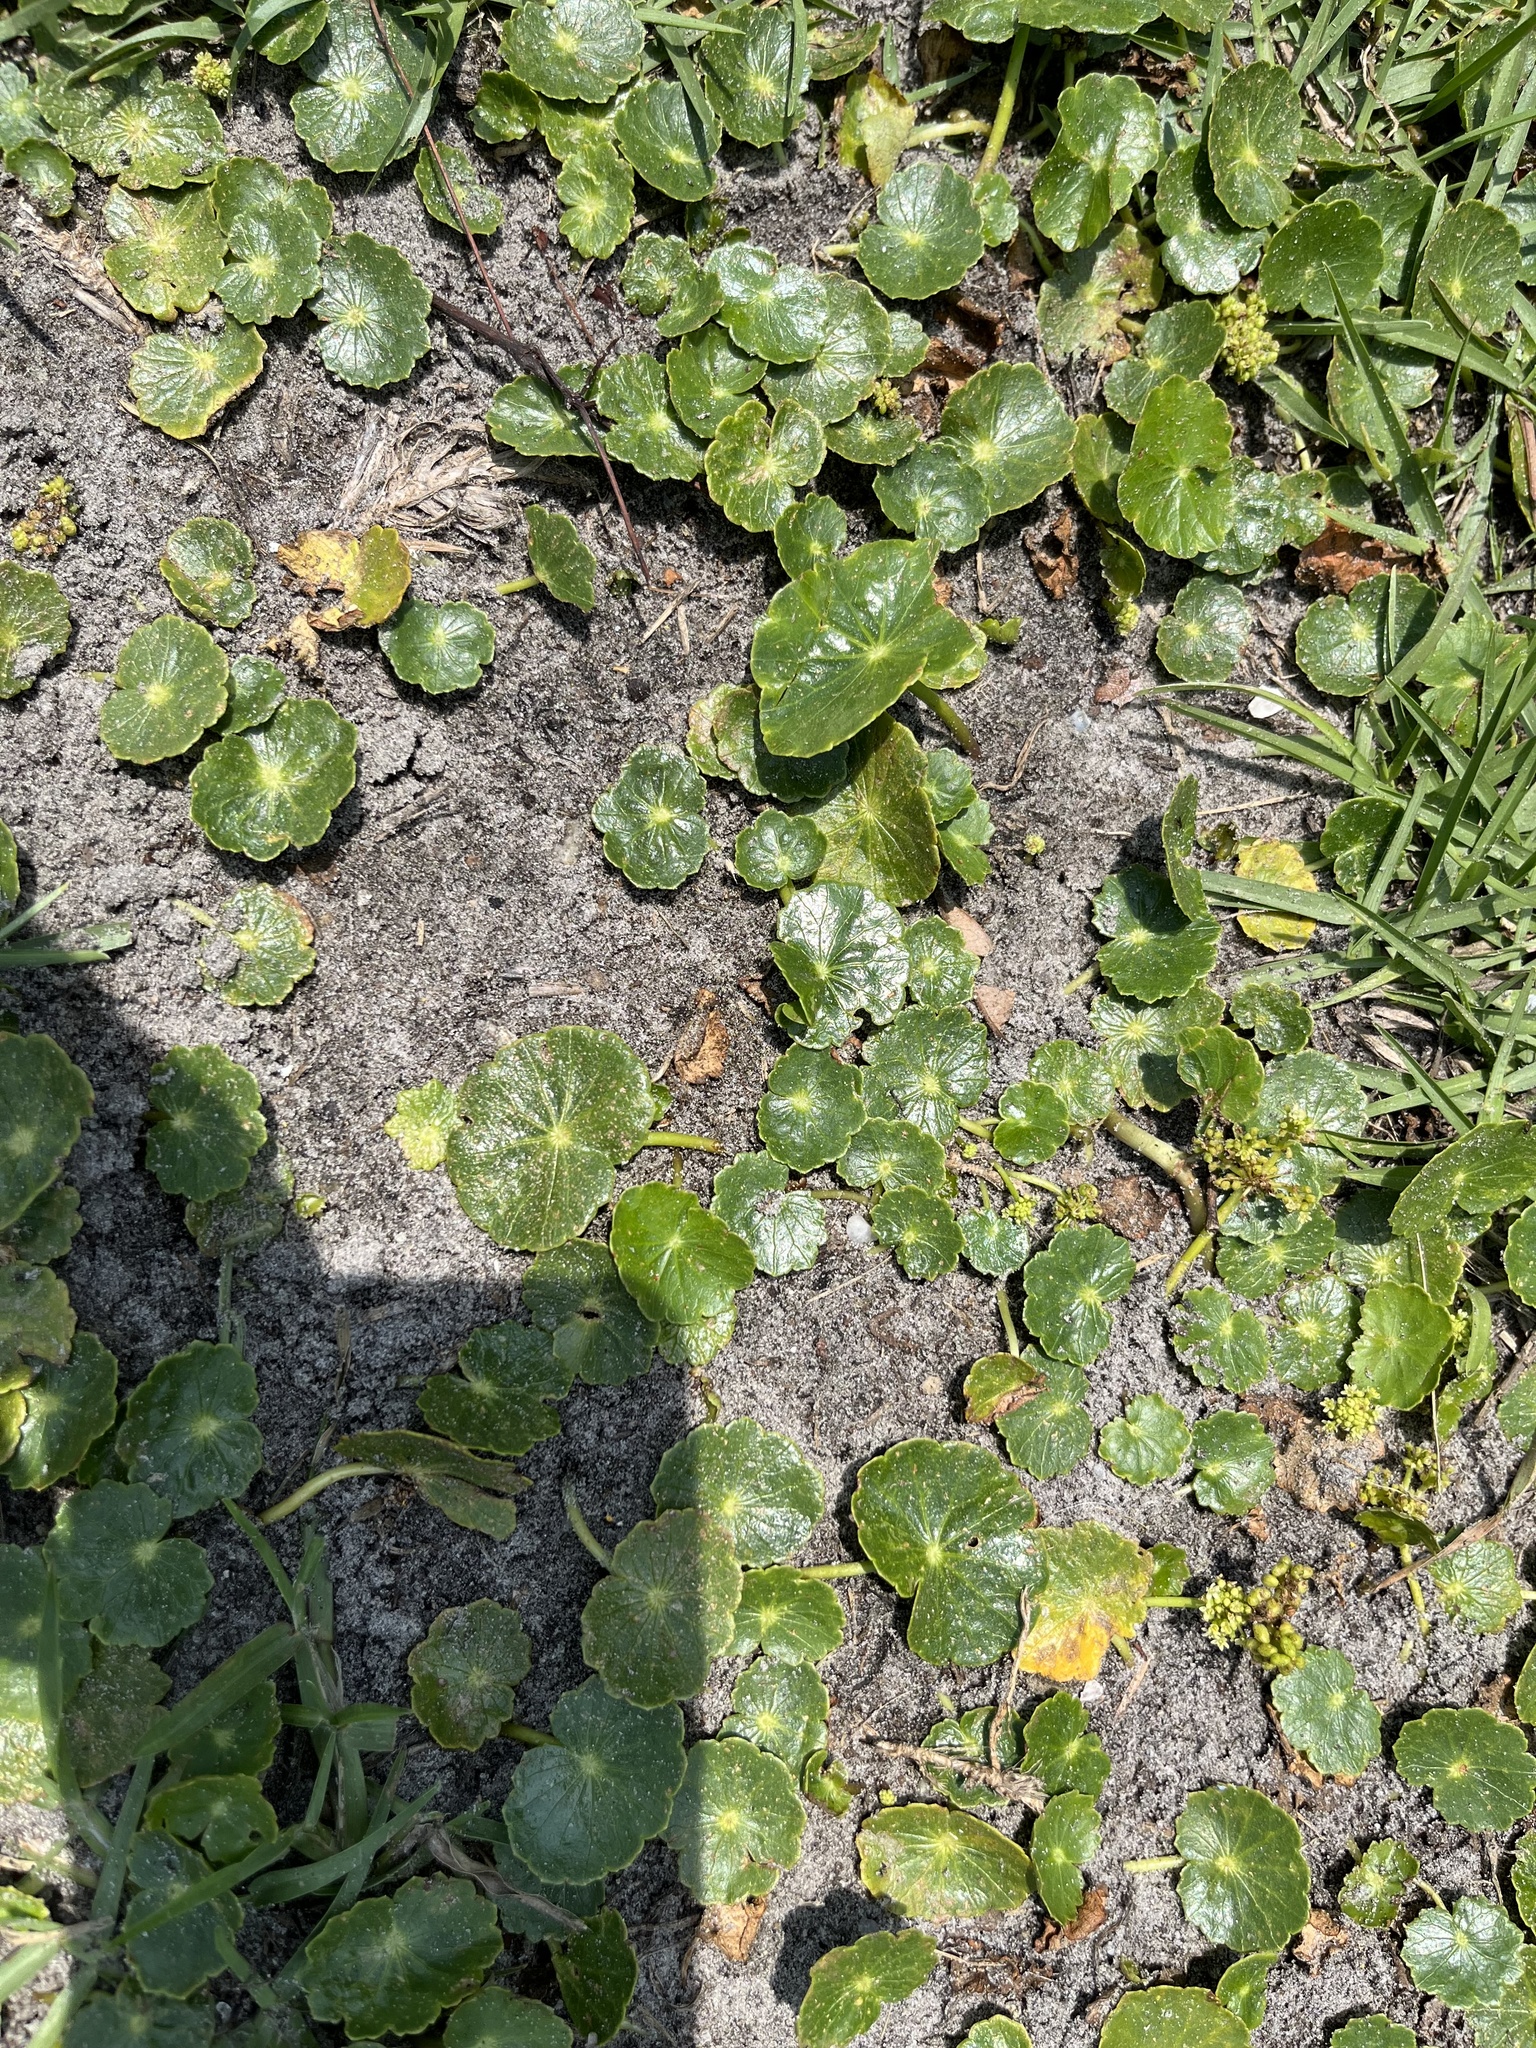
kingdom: Plantae
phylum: Tracheophyta
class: Magnoliopsida
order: Apiales
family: Araliaceae
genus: Hydrocotyle
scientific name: Hydrocotyle bonariensis
